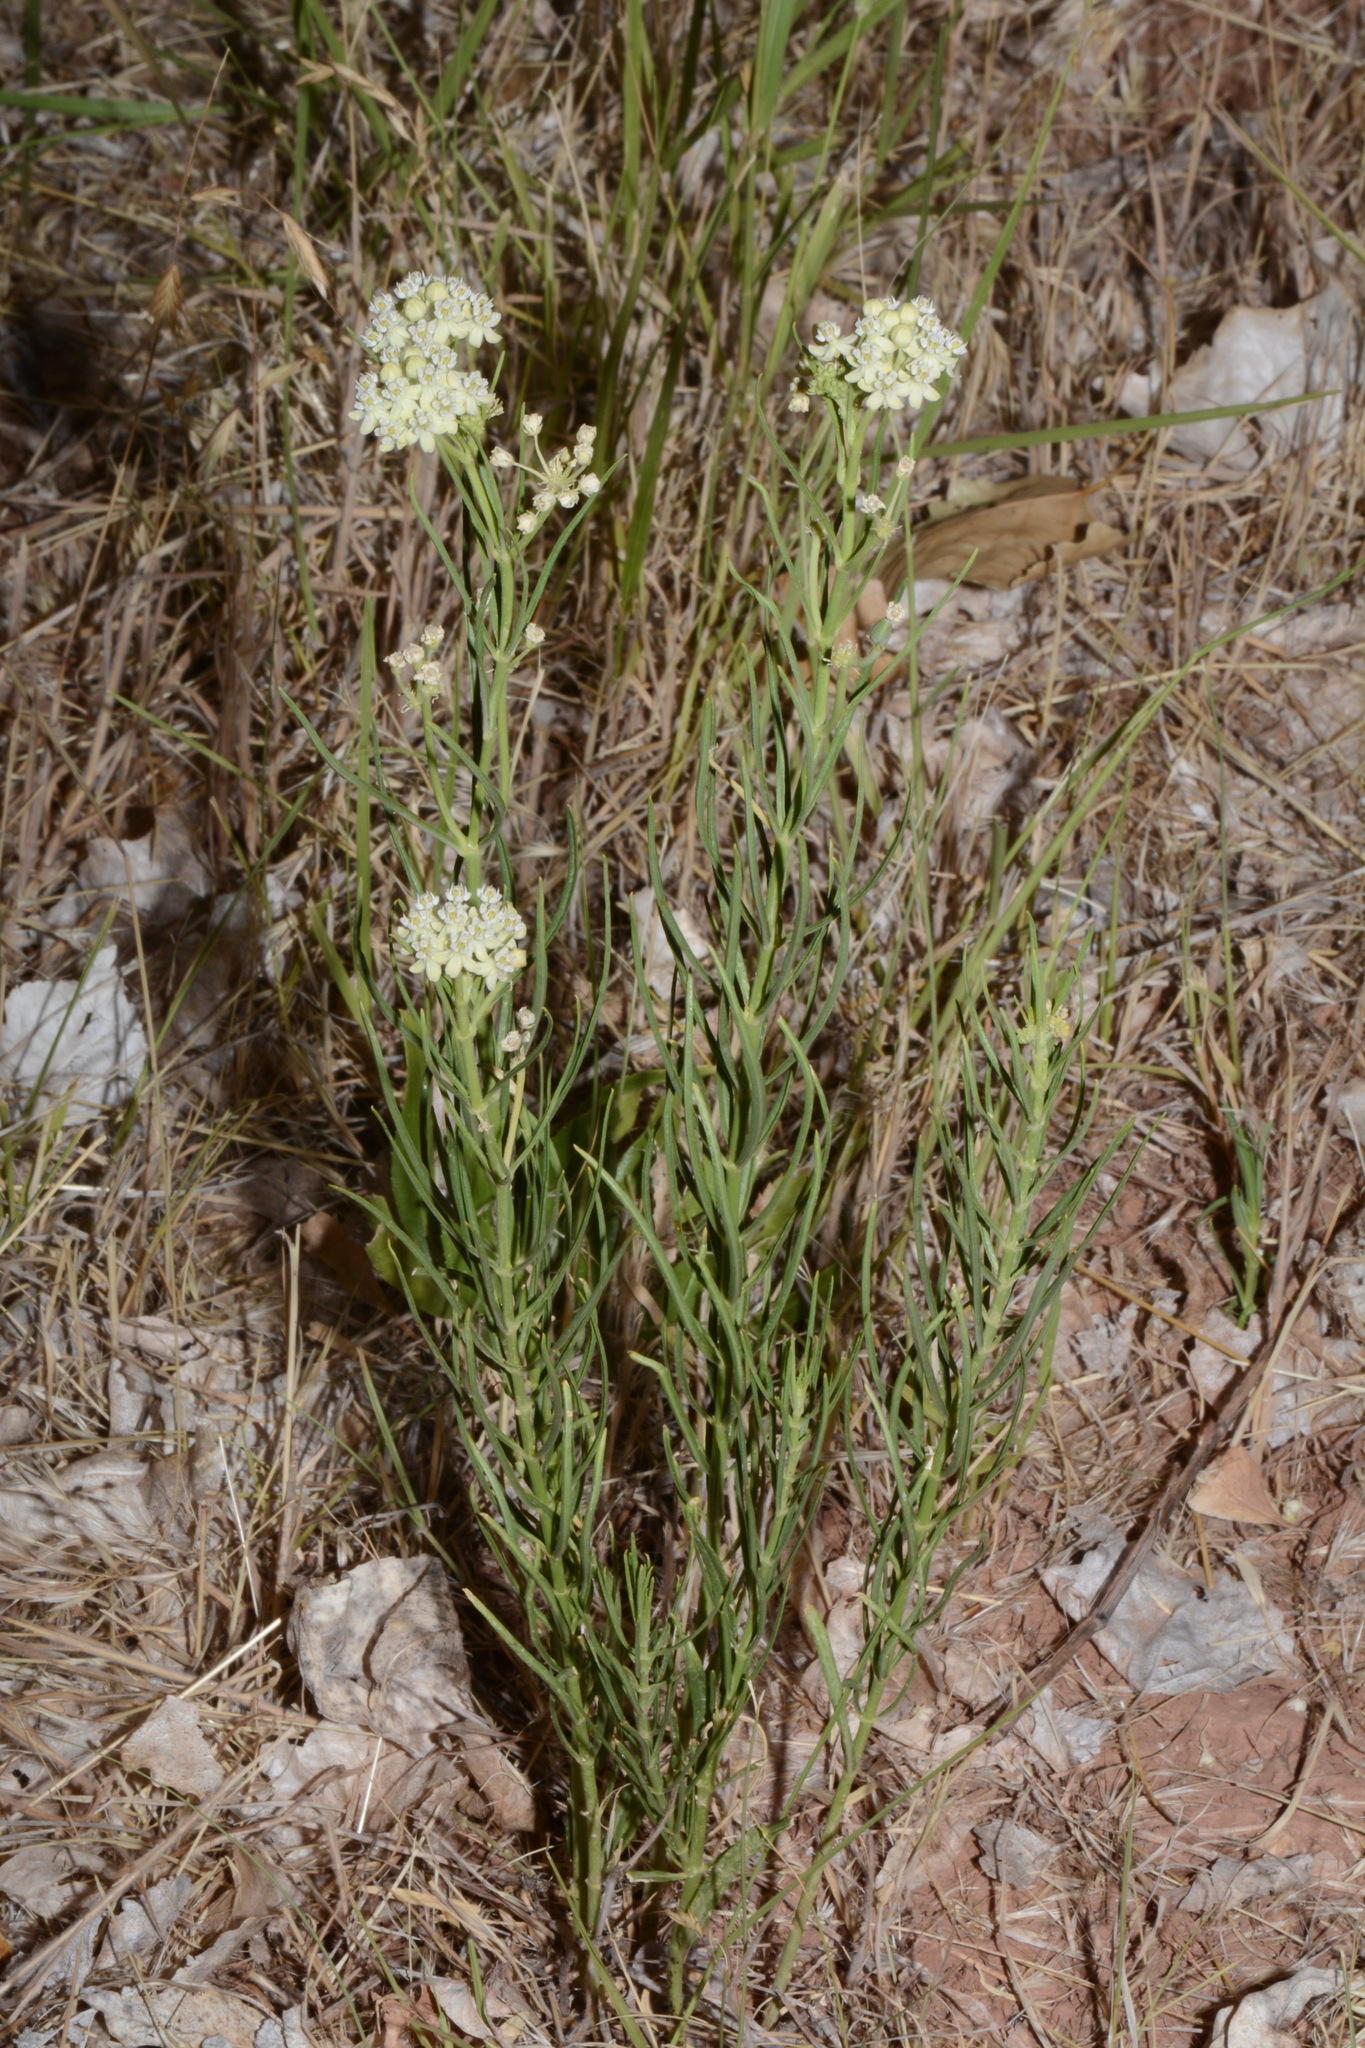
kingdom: Plantae
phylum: Tracheophyta
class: Magnoliopsida
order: Gentianales
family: Apocynaceae
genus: Asclepias
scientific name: Asclepias subverticillata
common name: Horsetail milkweed
